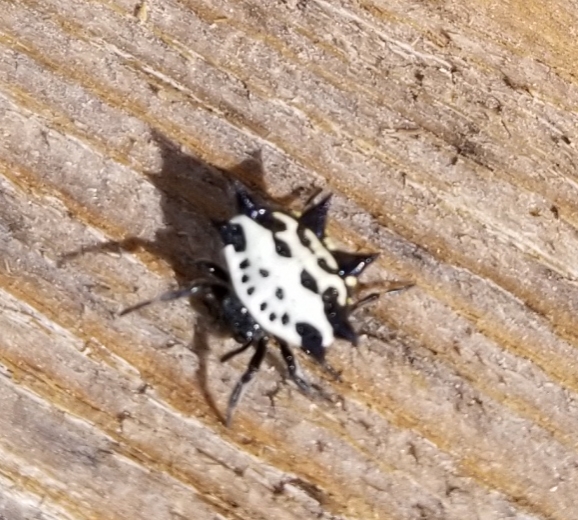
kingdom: Animalia
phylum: Arthropoda
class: Arachnida
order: Araneae
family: Araneidae
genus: Gasteracantha
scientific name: Gasteracantha cancriformis
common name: Orb weavers
